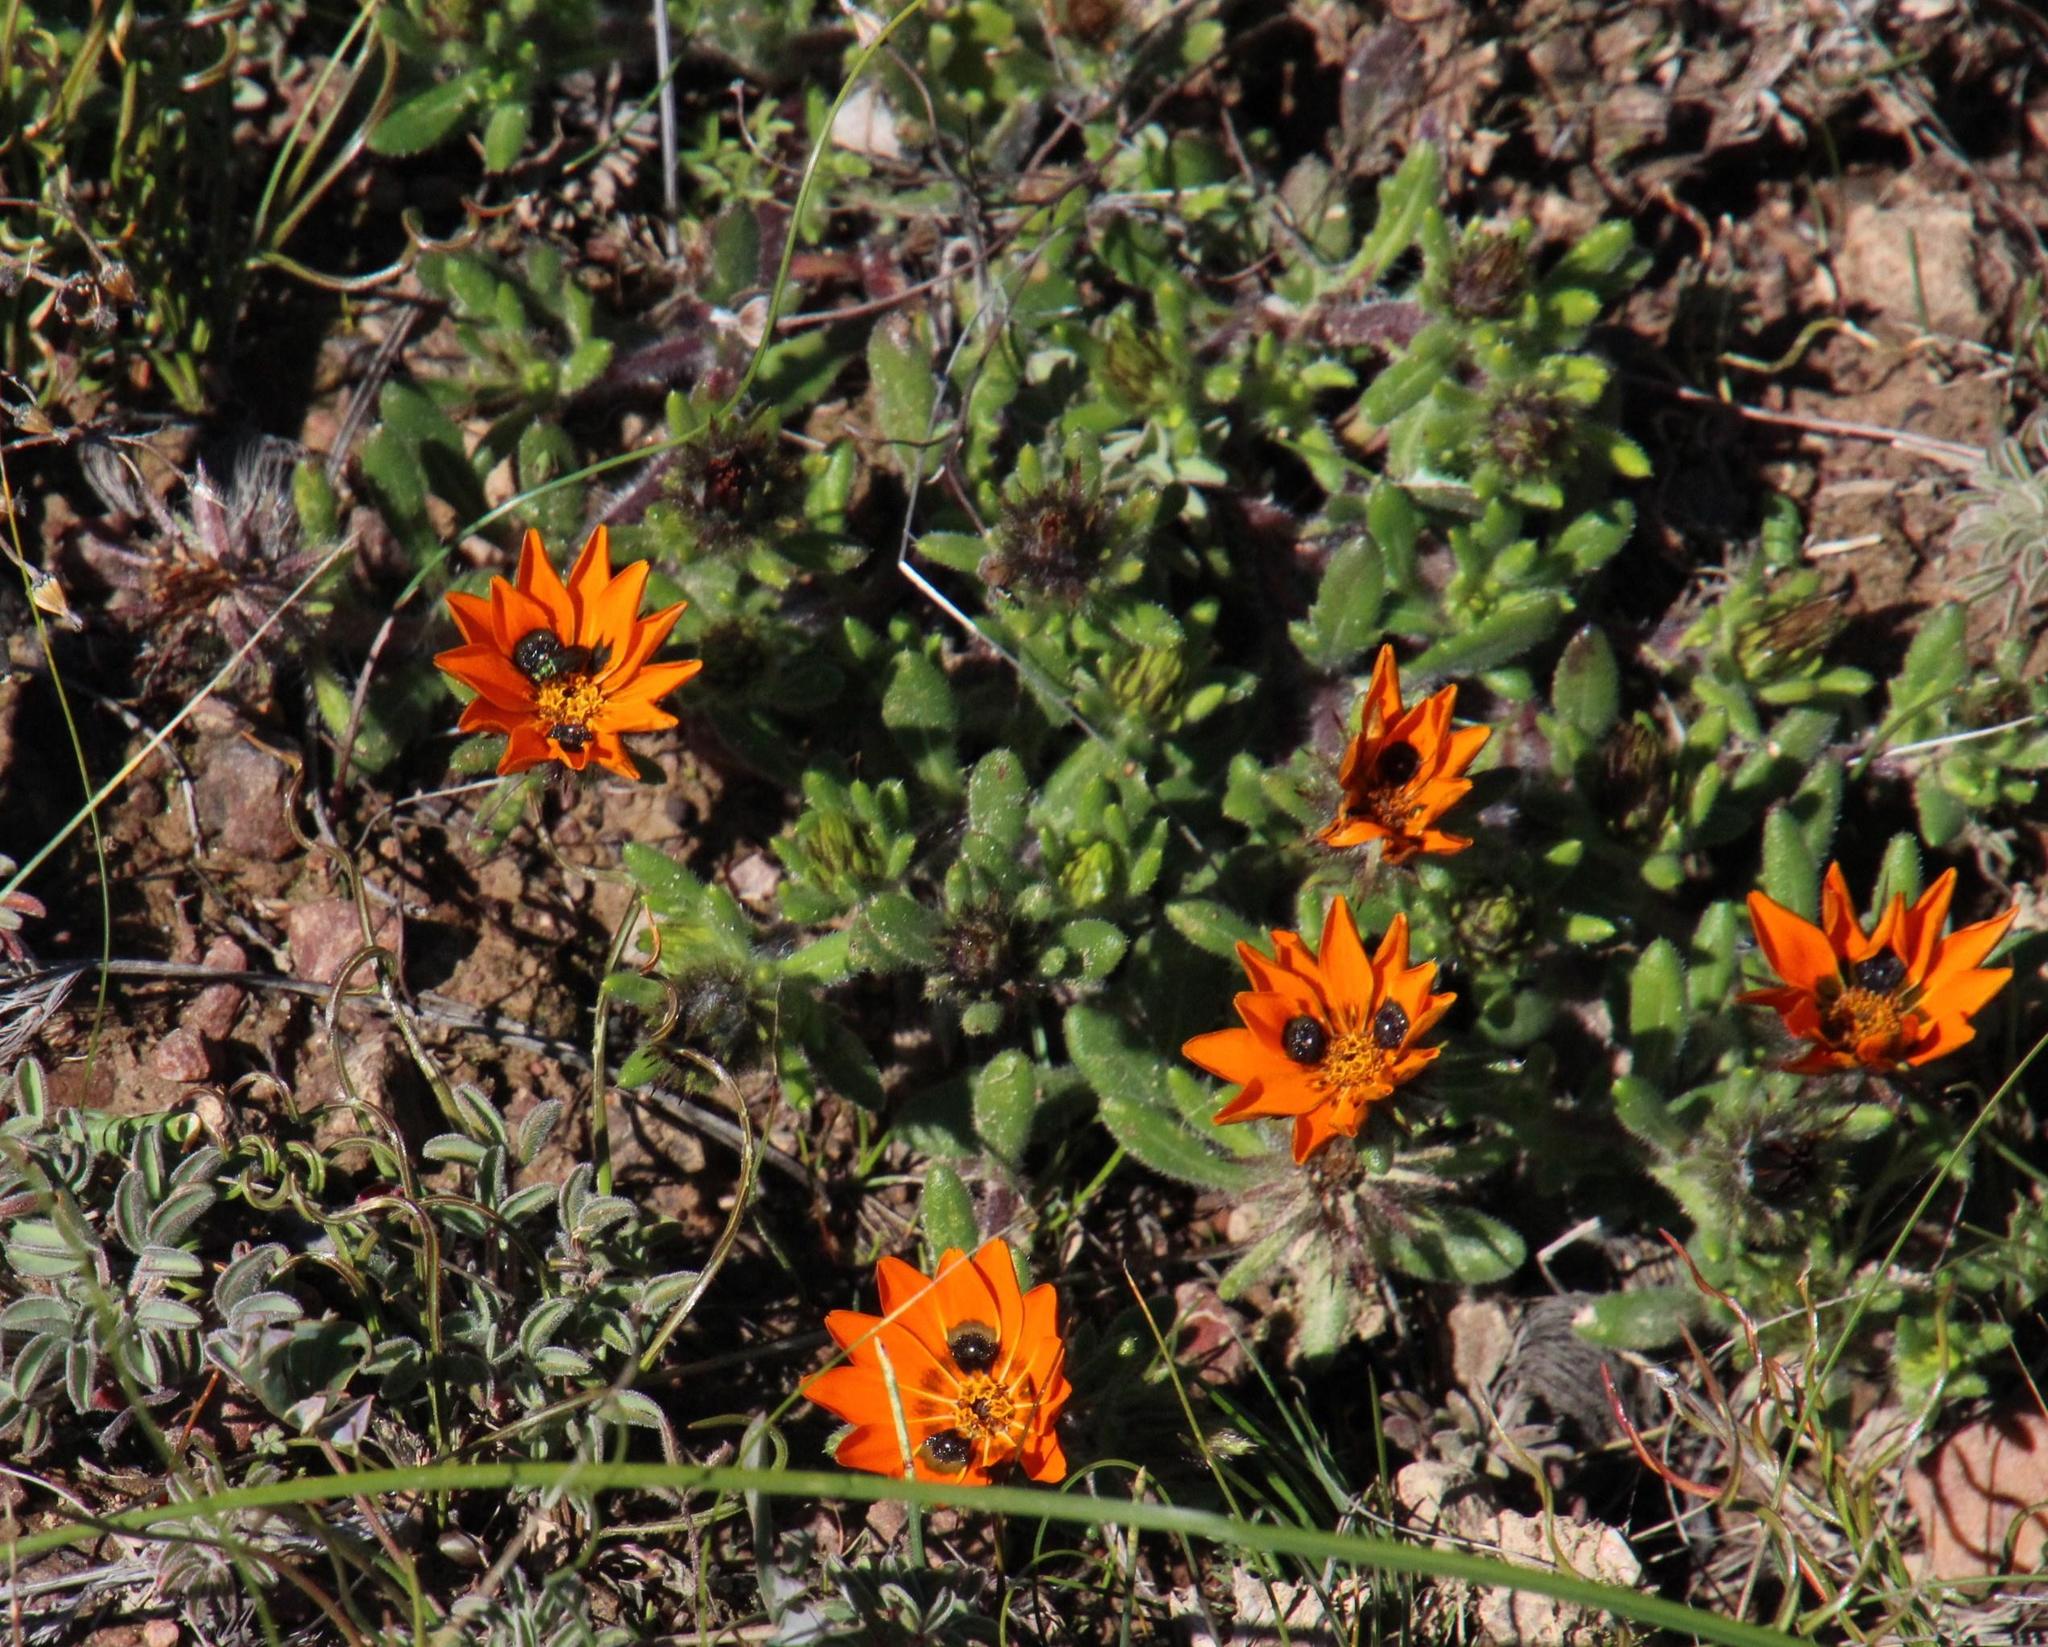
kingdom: Plantae
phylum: Tracheophyta
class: Magnoliopsida
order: Asterales
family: Asteraceae
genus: Gorteria
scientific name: Gorteria diffusa
